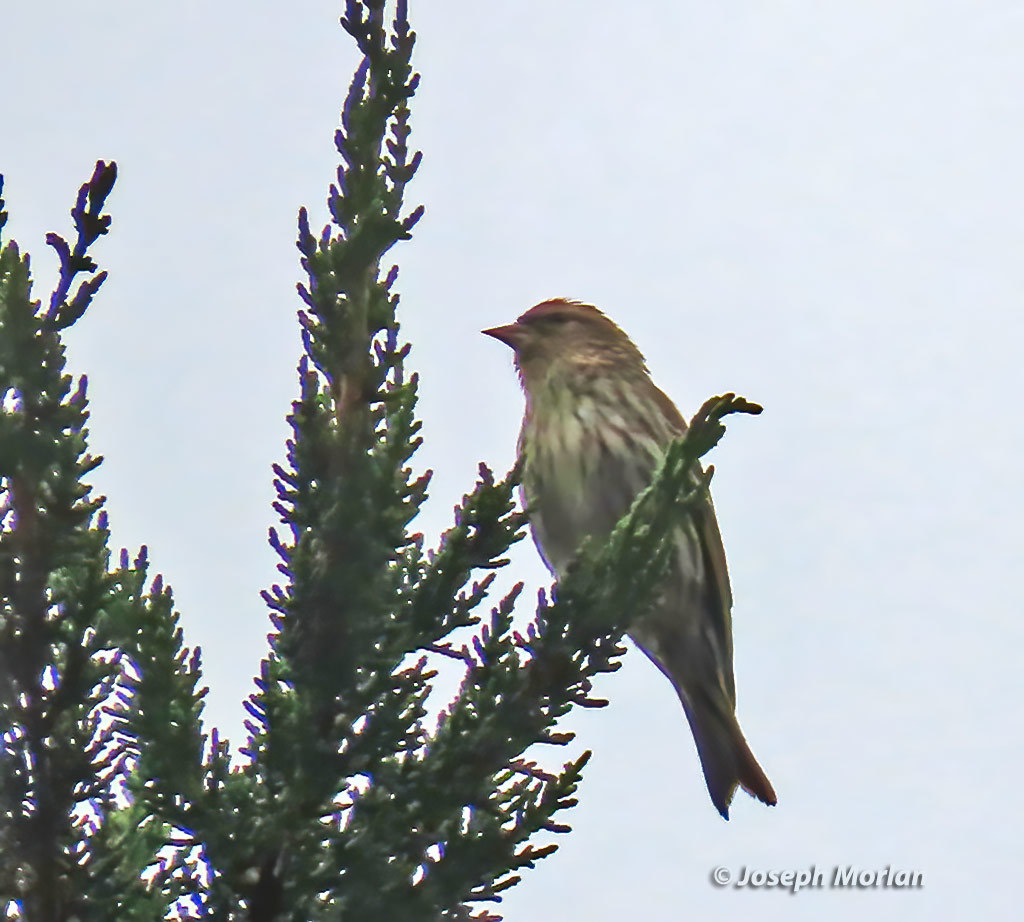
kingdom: Animalia
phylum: Chordata
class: Aves
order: Passeriformes
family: Fringillidae
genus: Spinus
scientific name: Spinus pinus
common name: Pine siskin
